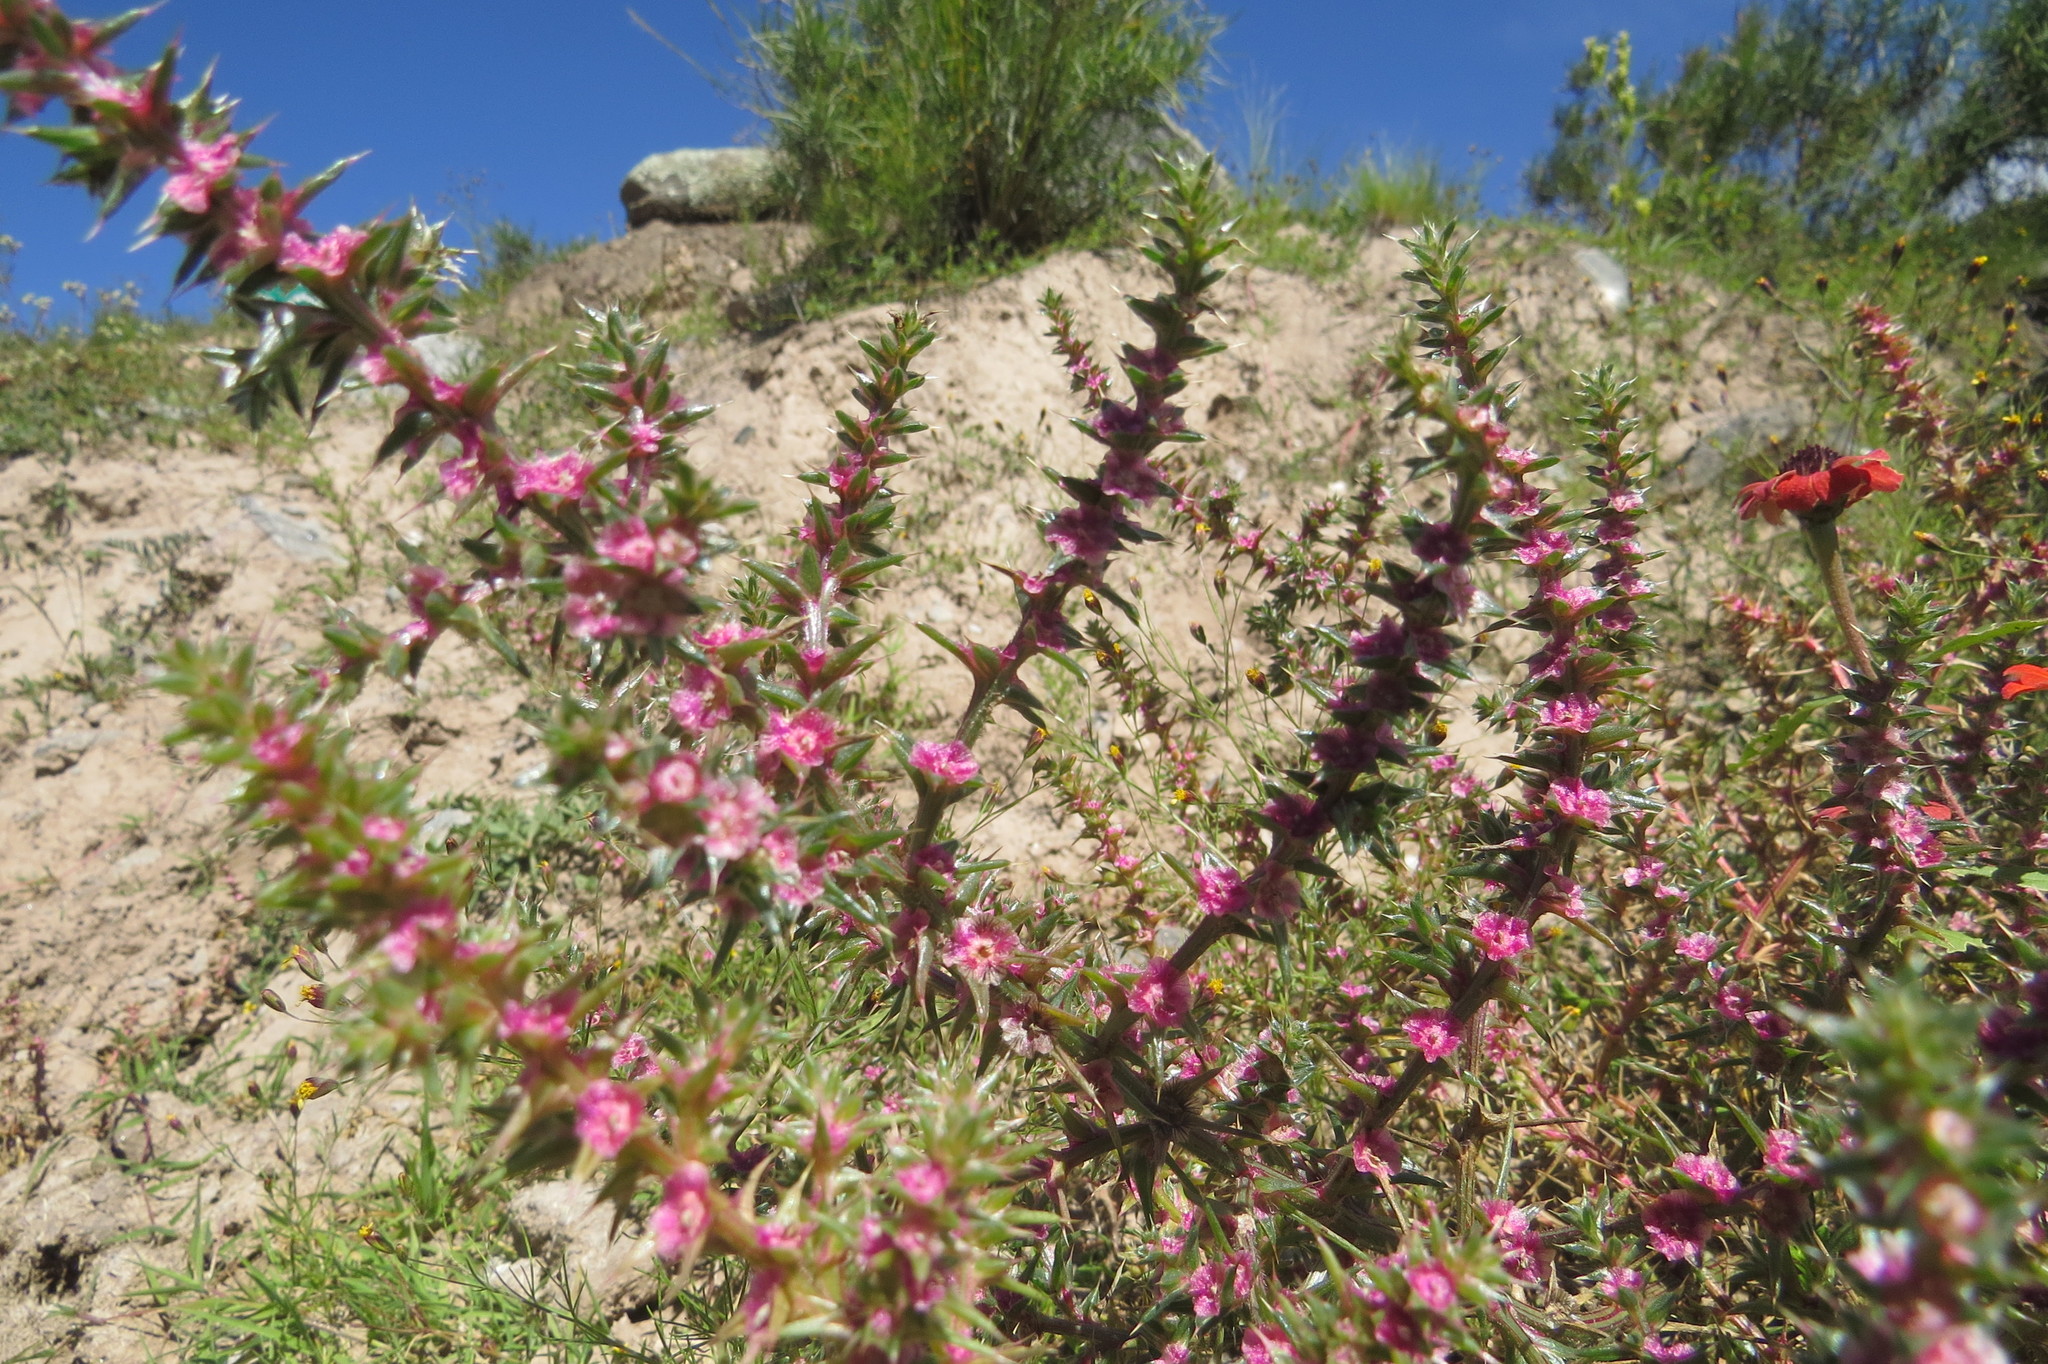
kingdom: Plantae
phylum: Tracheophyta
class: Magnoliopsida
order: Caryophyllales
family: Amaranthaceae
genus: Salsola
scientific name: Salsola kali
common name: Saltwort
